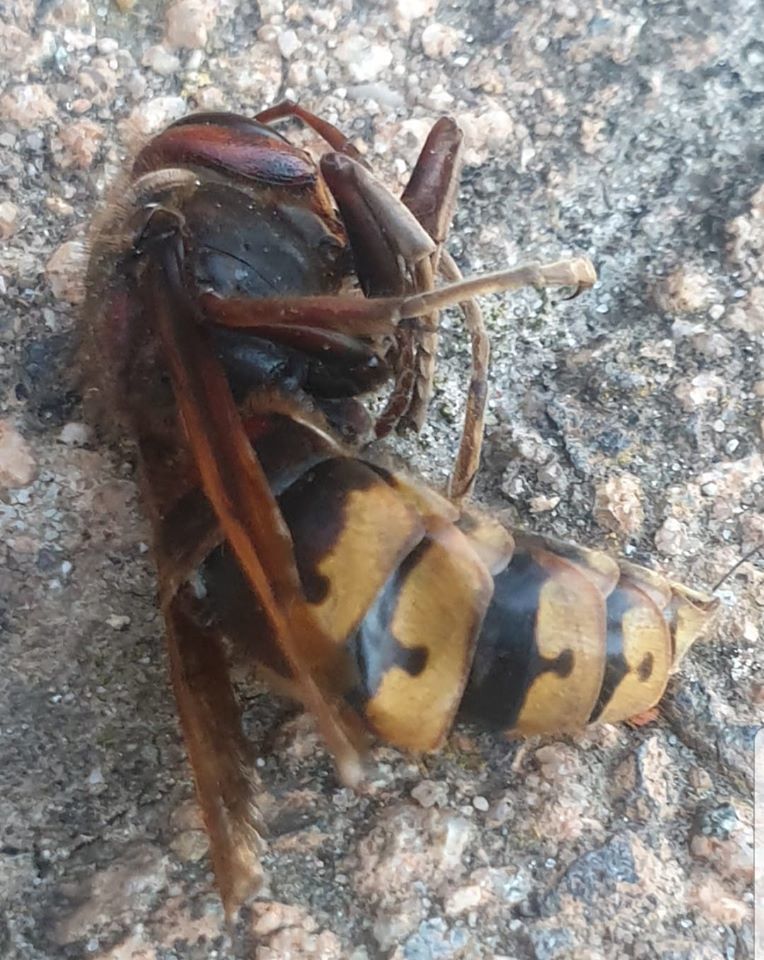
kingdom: Animalia
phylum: Arthropoda
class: Insecta
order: Hymenoptera
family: Vespidae
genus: Vespa
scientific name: Vespa crabro
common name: Hornet
